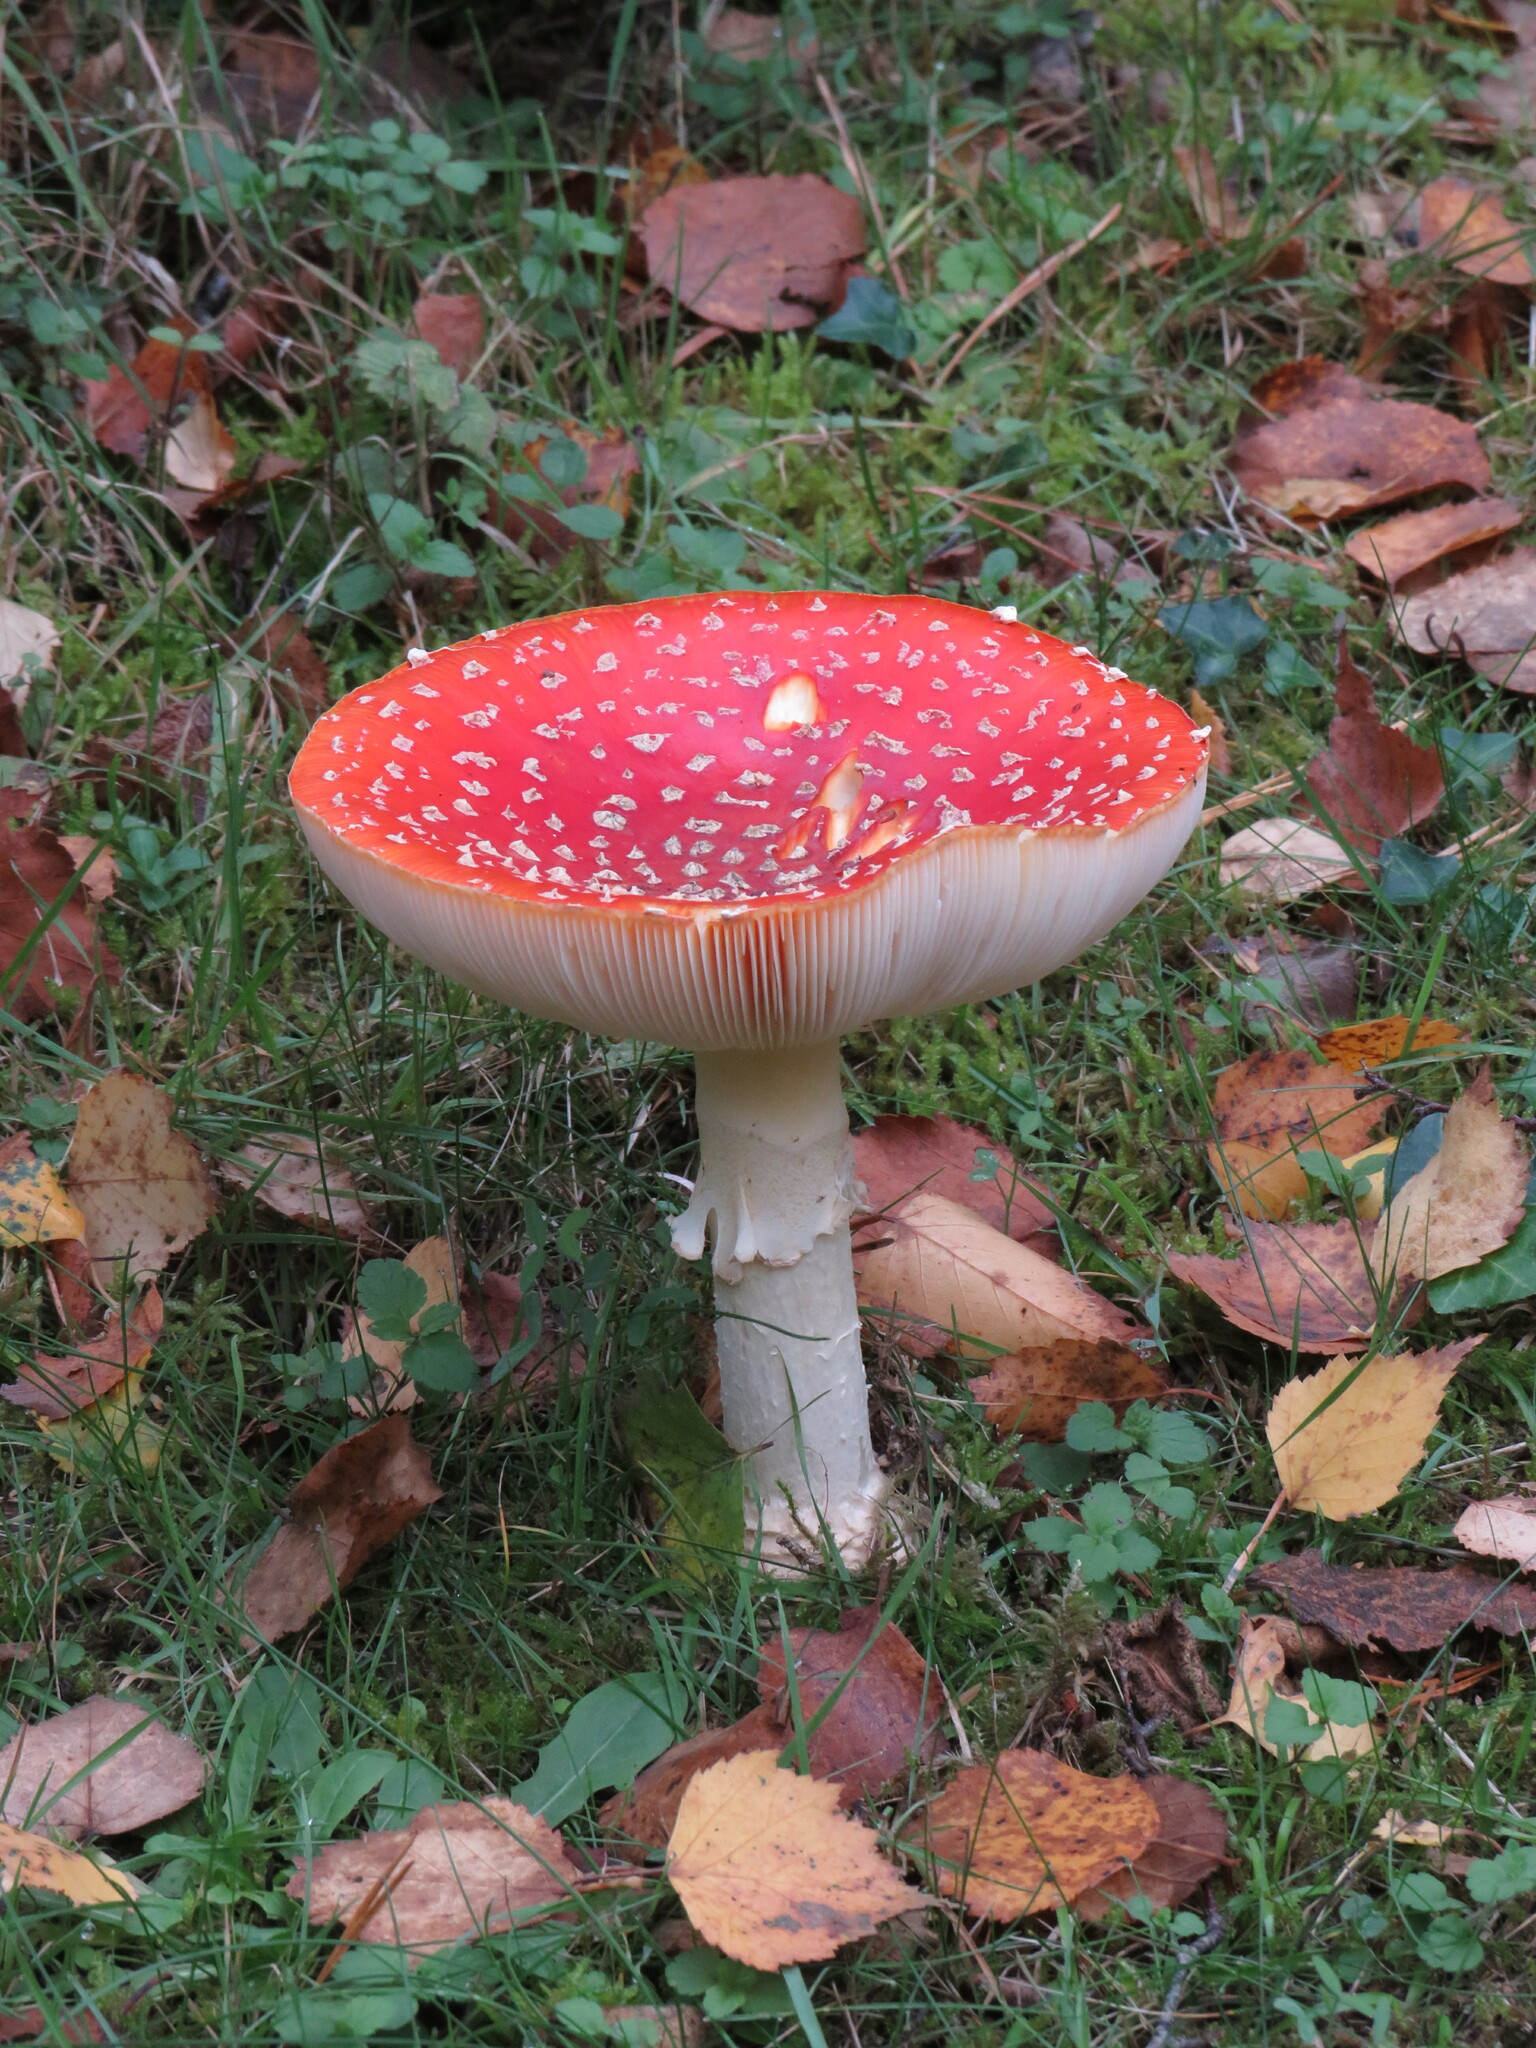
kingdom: Fungi
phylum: Basidiomycota
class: Agaricomycetes
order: Agaricales
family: Amanitaceae
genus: Amanita
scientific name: Amanita muscaria
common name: Fly agaric
